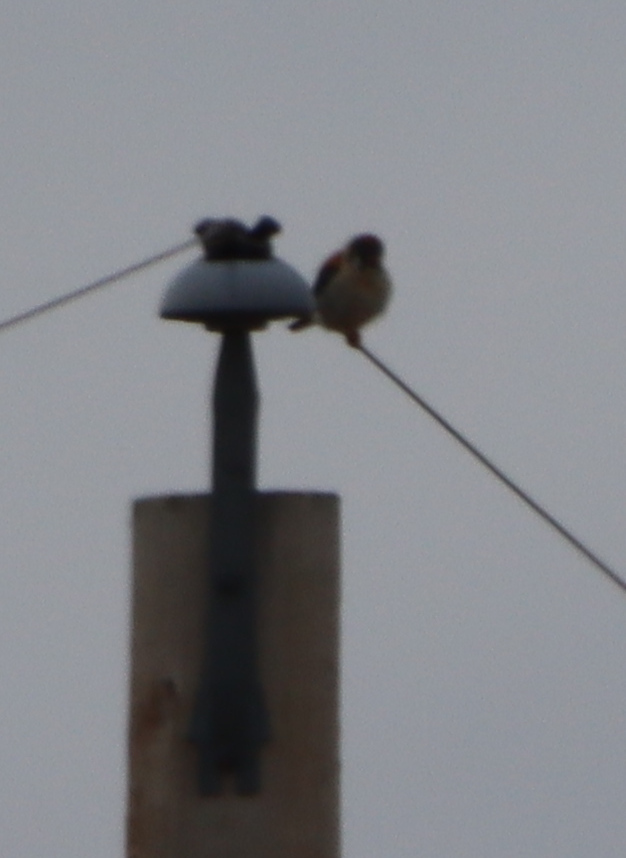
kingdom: Animalia
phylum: Chordata
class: Aves
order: Falconiformes
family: Falconidae
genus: Falco
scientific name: Falco sparverius
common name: American kestrel
